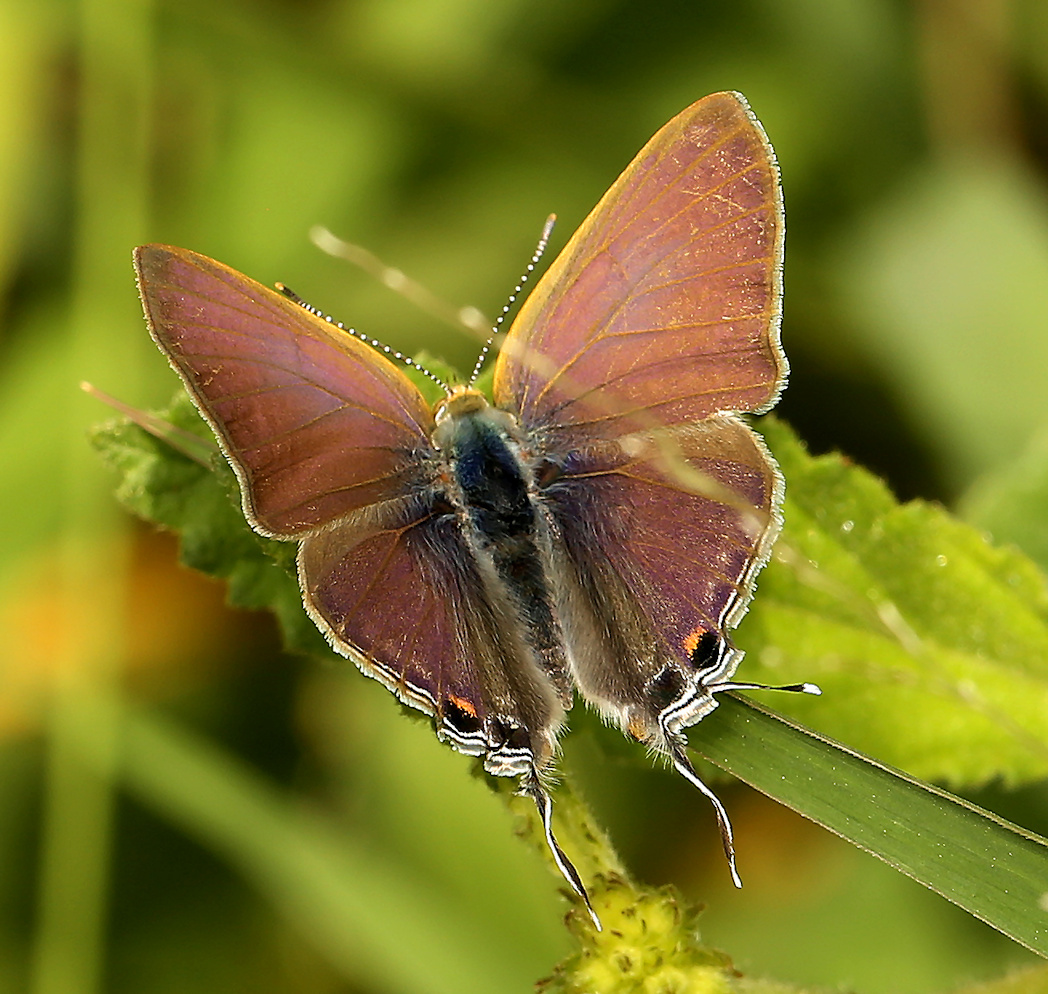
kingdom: Animalia
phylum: Arthropoda
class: Insecta
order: Lepidoptera
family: Lycaenidae
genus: Hypolycaena
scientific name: Hypolycaena philippus
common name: Common hairstreak
